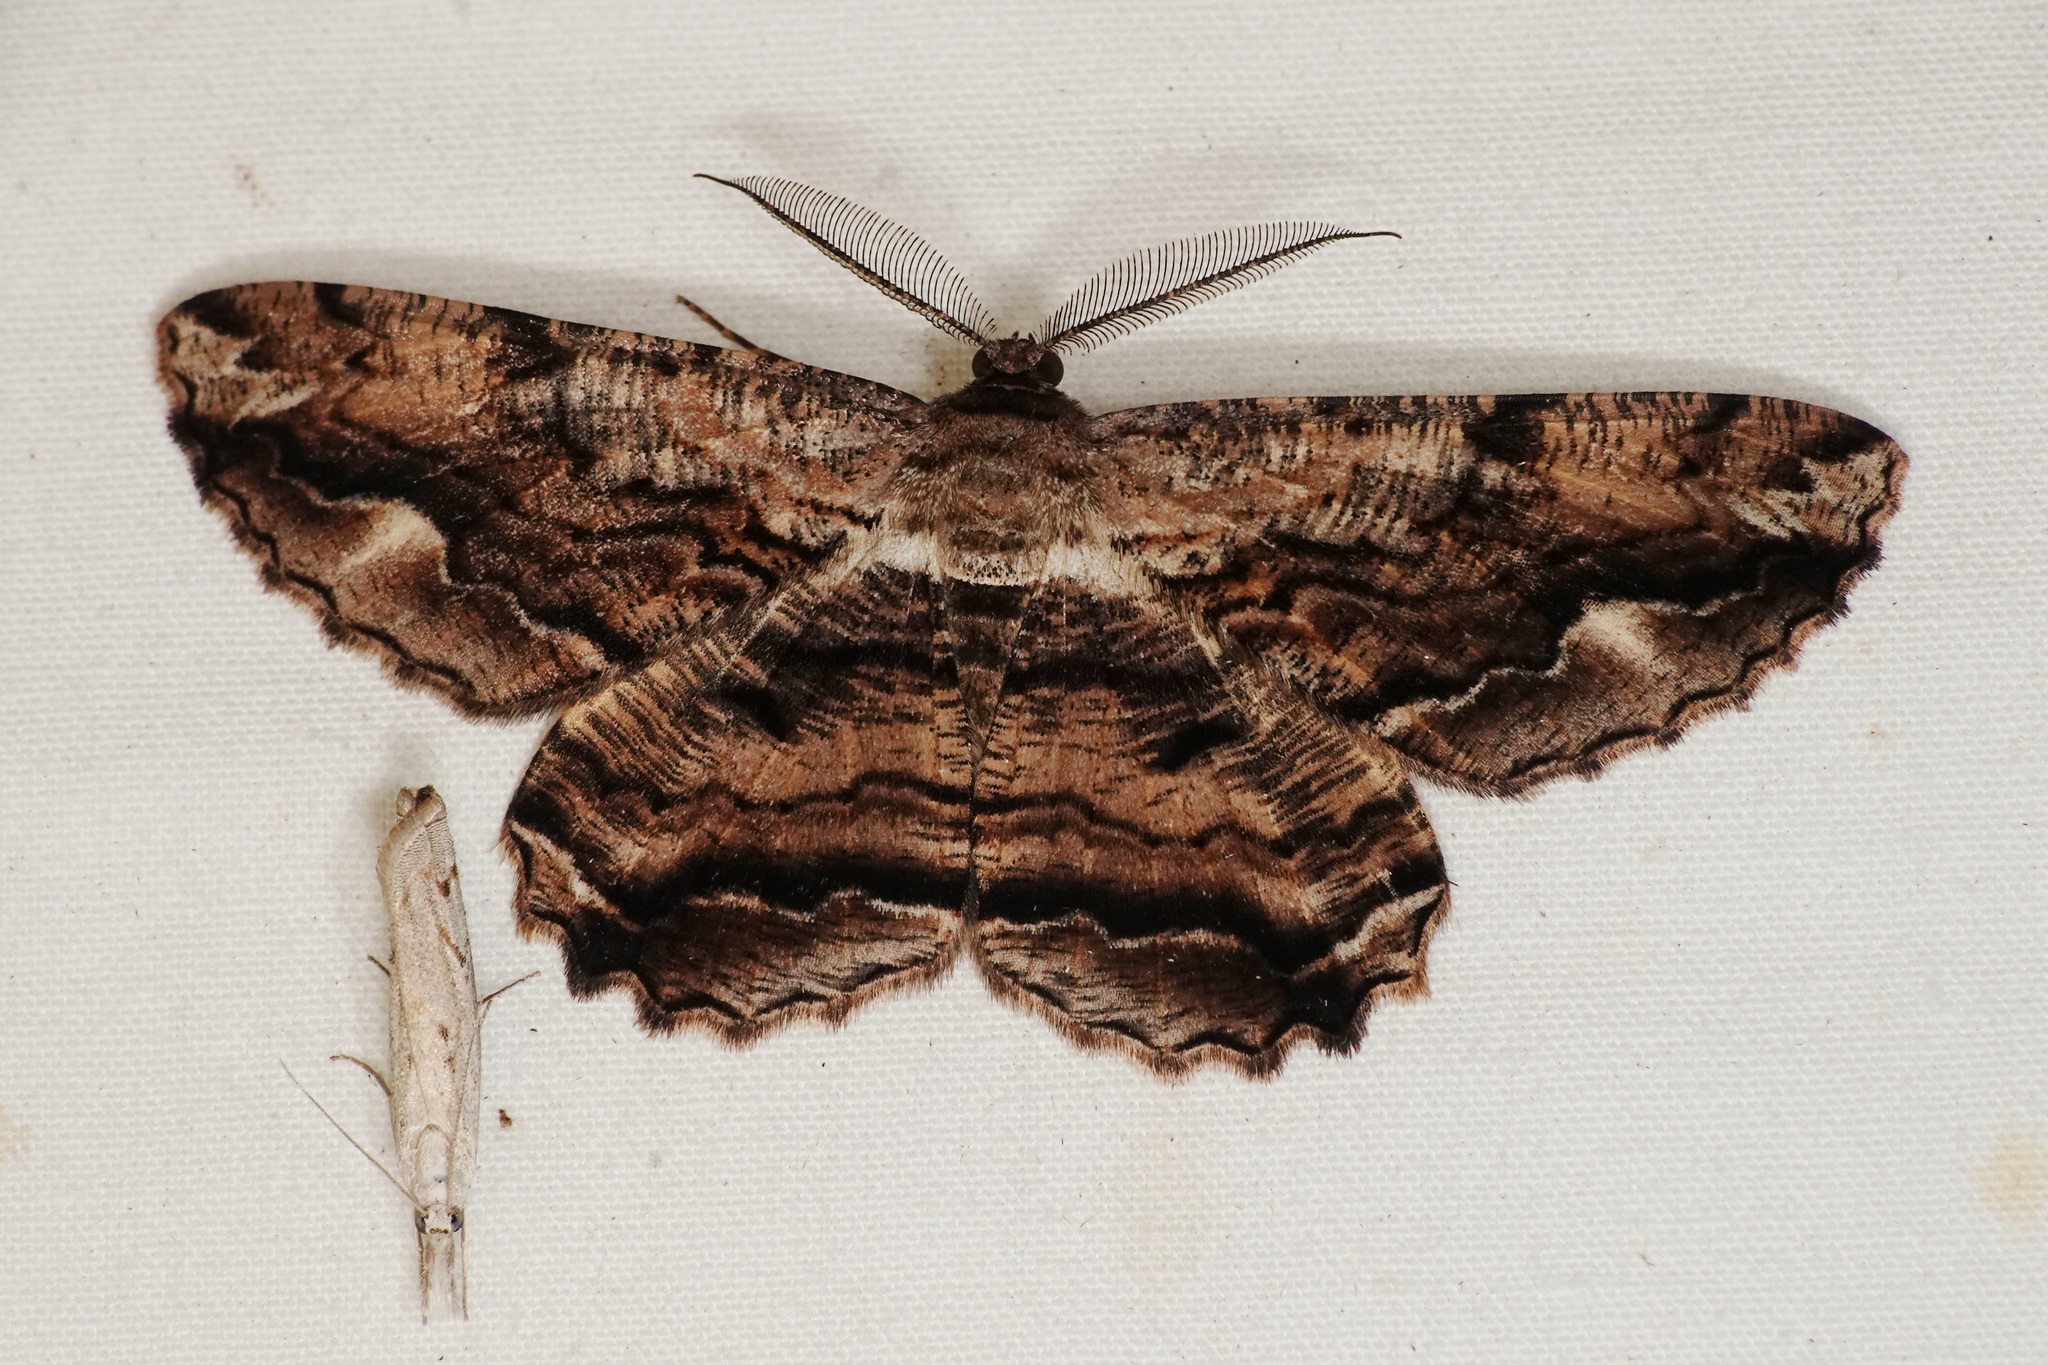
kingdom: Animalia
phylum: Arthropoda
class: Insecta
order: Lepidoptera
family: Geometridae
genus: Scioglyptis
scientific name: Scioglyptis lyciaria
